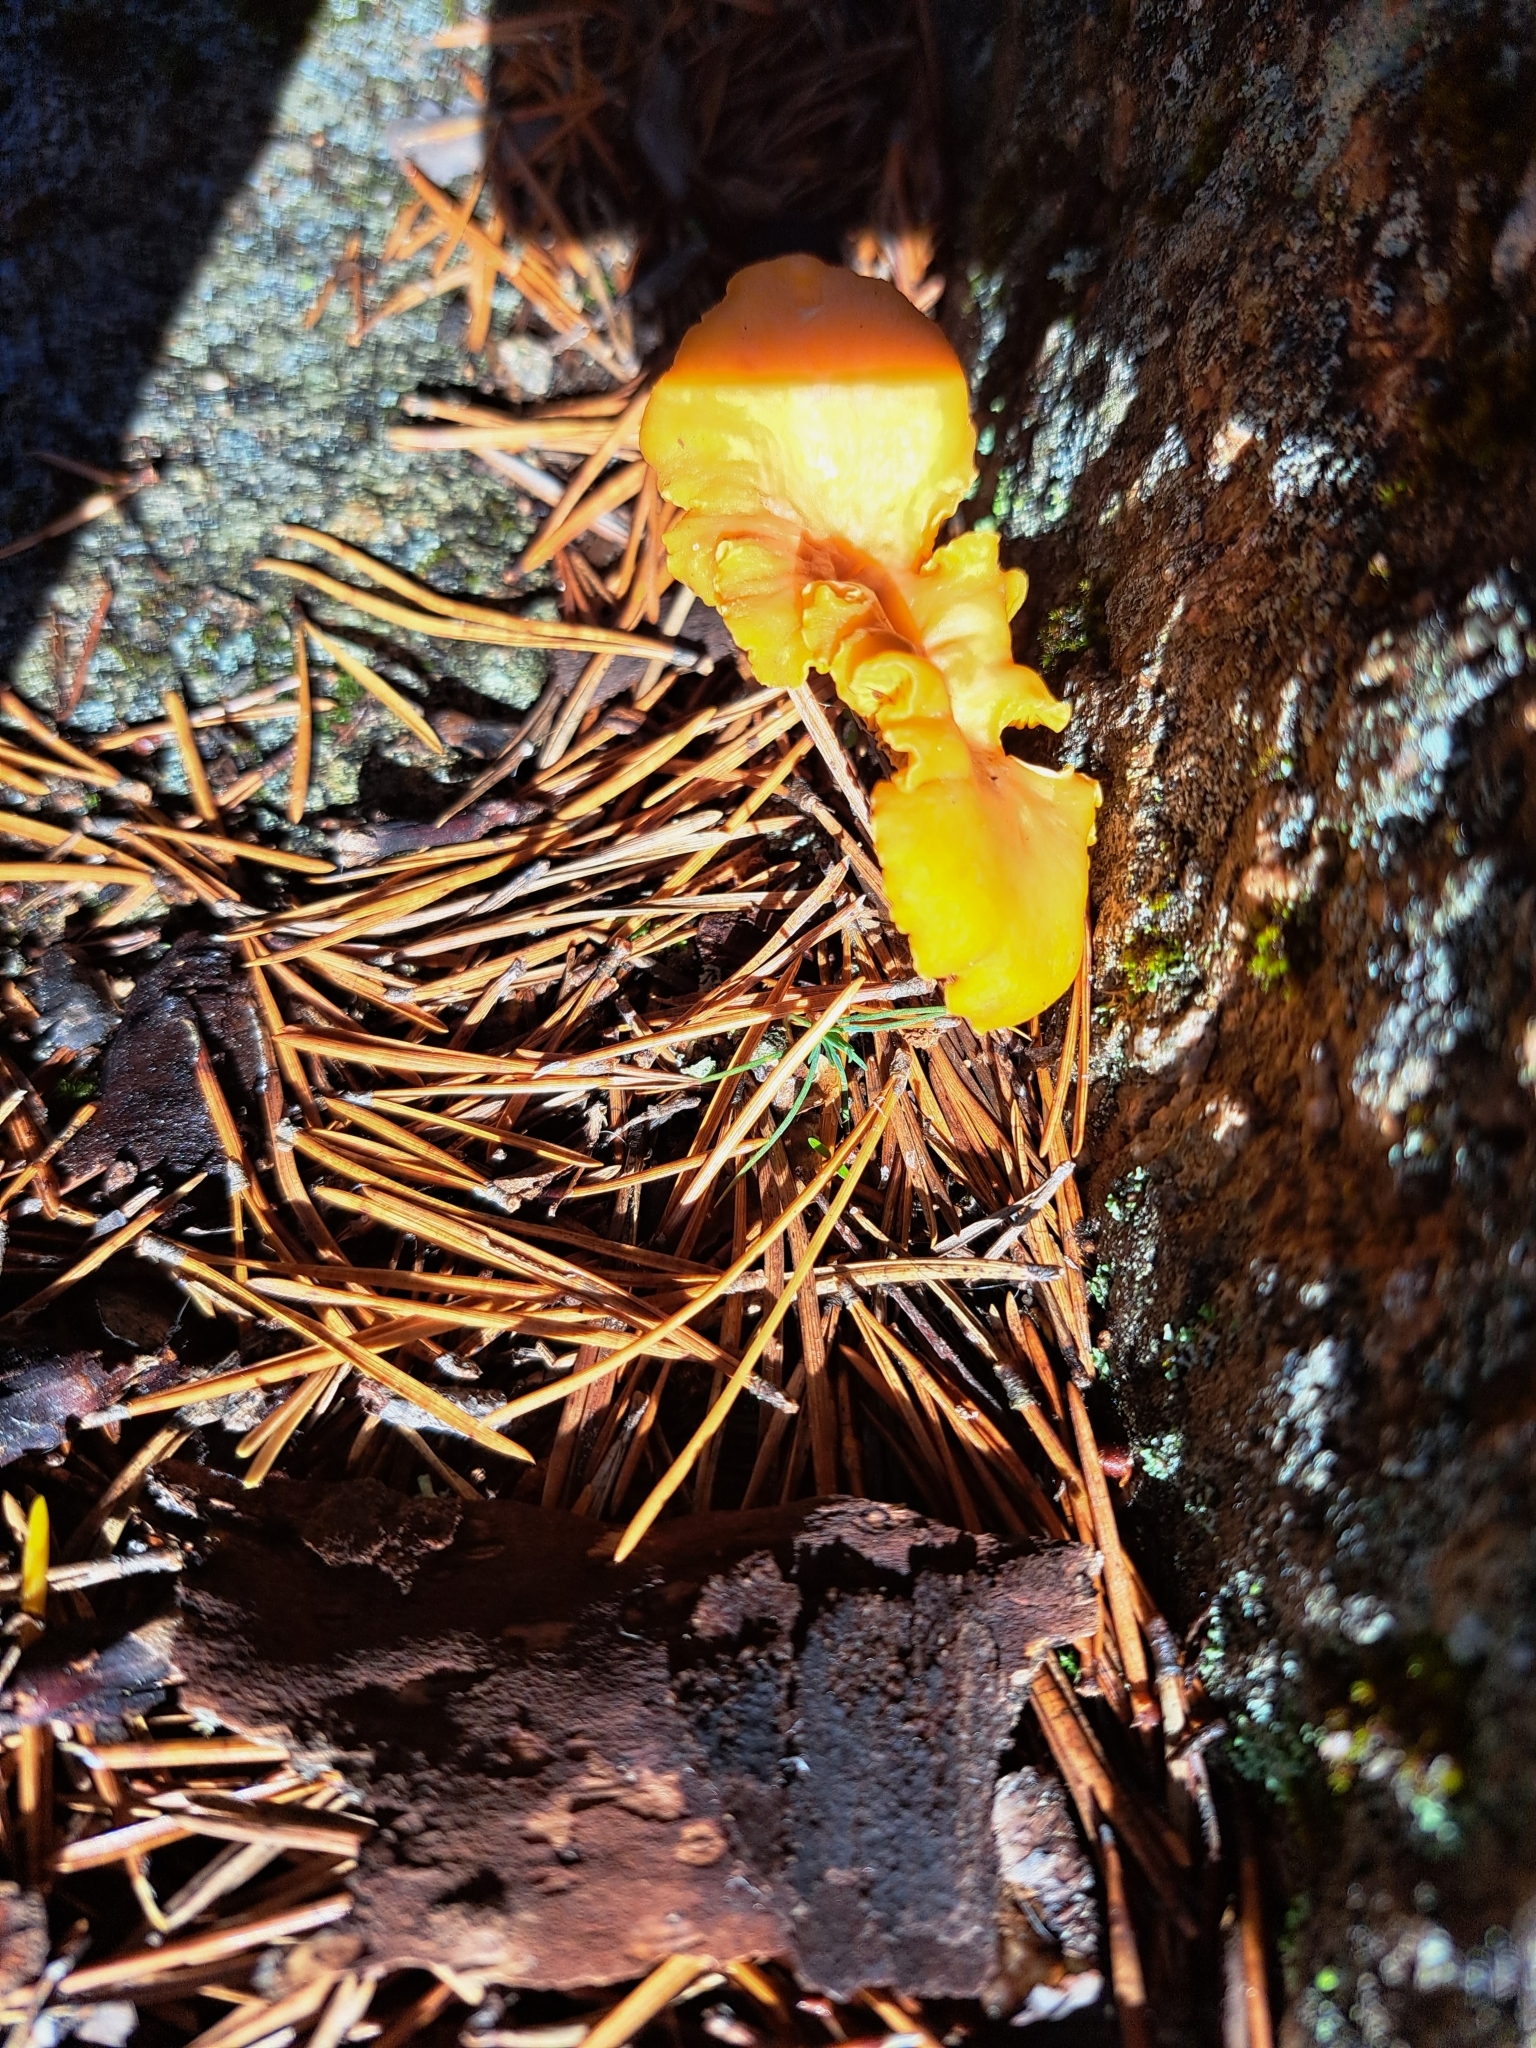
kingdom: Fungi
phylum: Basidiomycota
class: Agaricomycetes
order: Cantharellales
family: Hydnaceae
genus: Cantharellus
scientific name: Cantharellus cibarius
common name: Chanterelle
